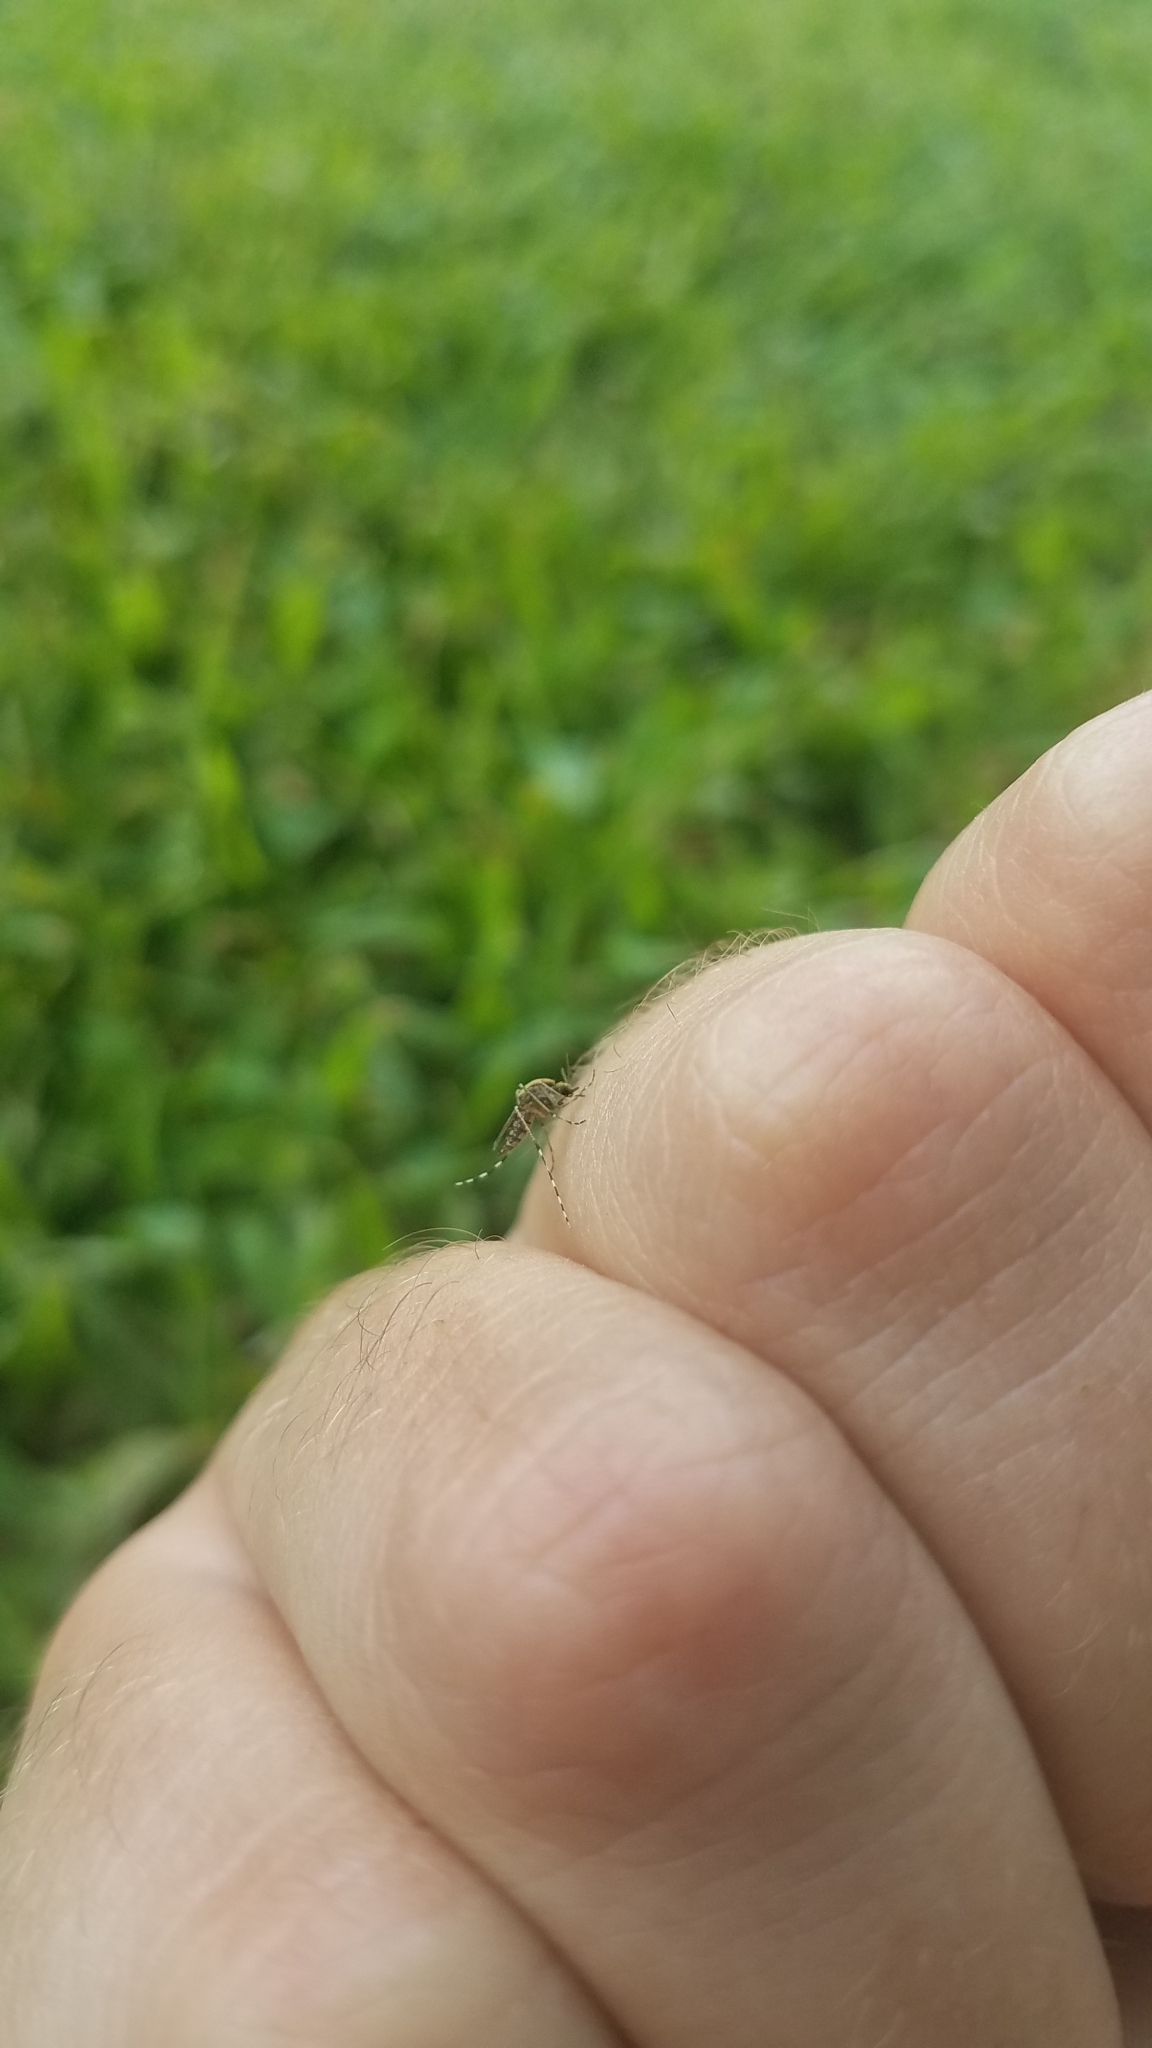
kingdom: Animalia
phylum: Arthropoda
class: Insecta
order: Diptera
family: Culicidae
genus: Aedes
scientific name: Aedes sollicitans
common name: Saltmarsh mosquito
